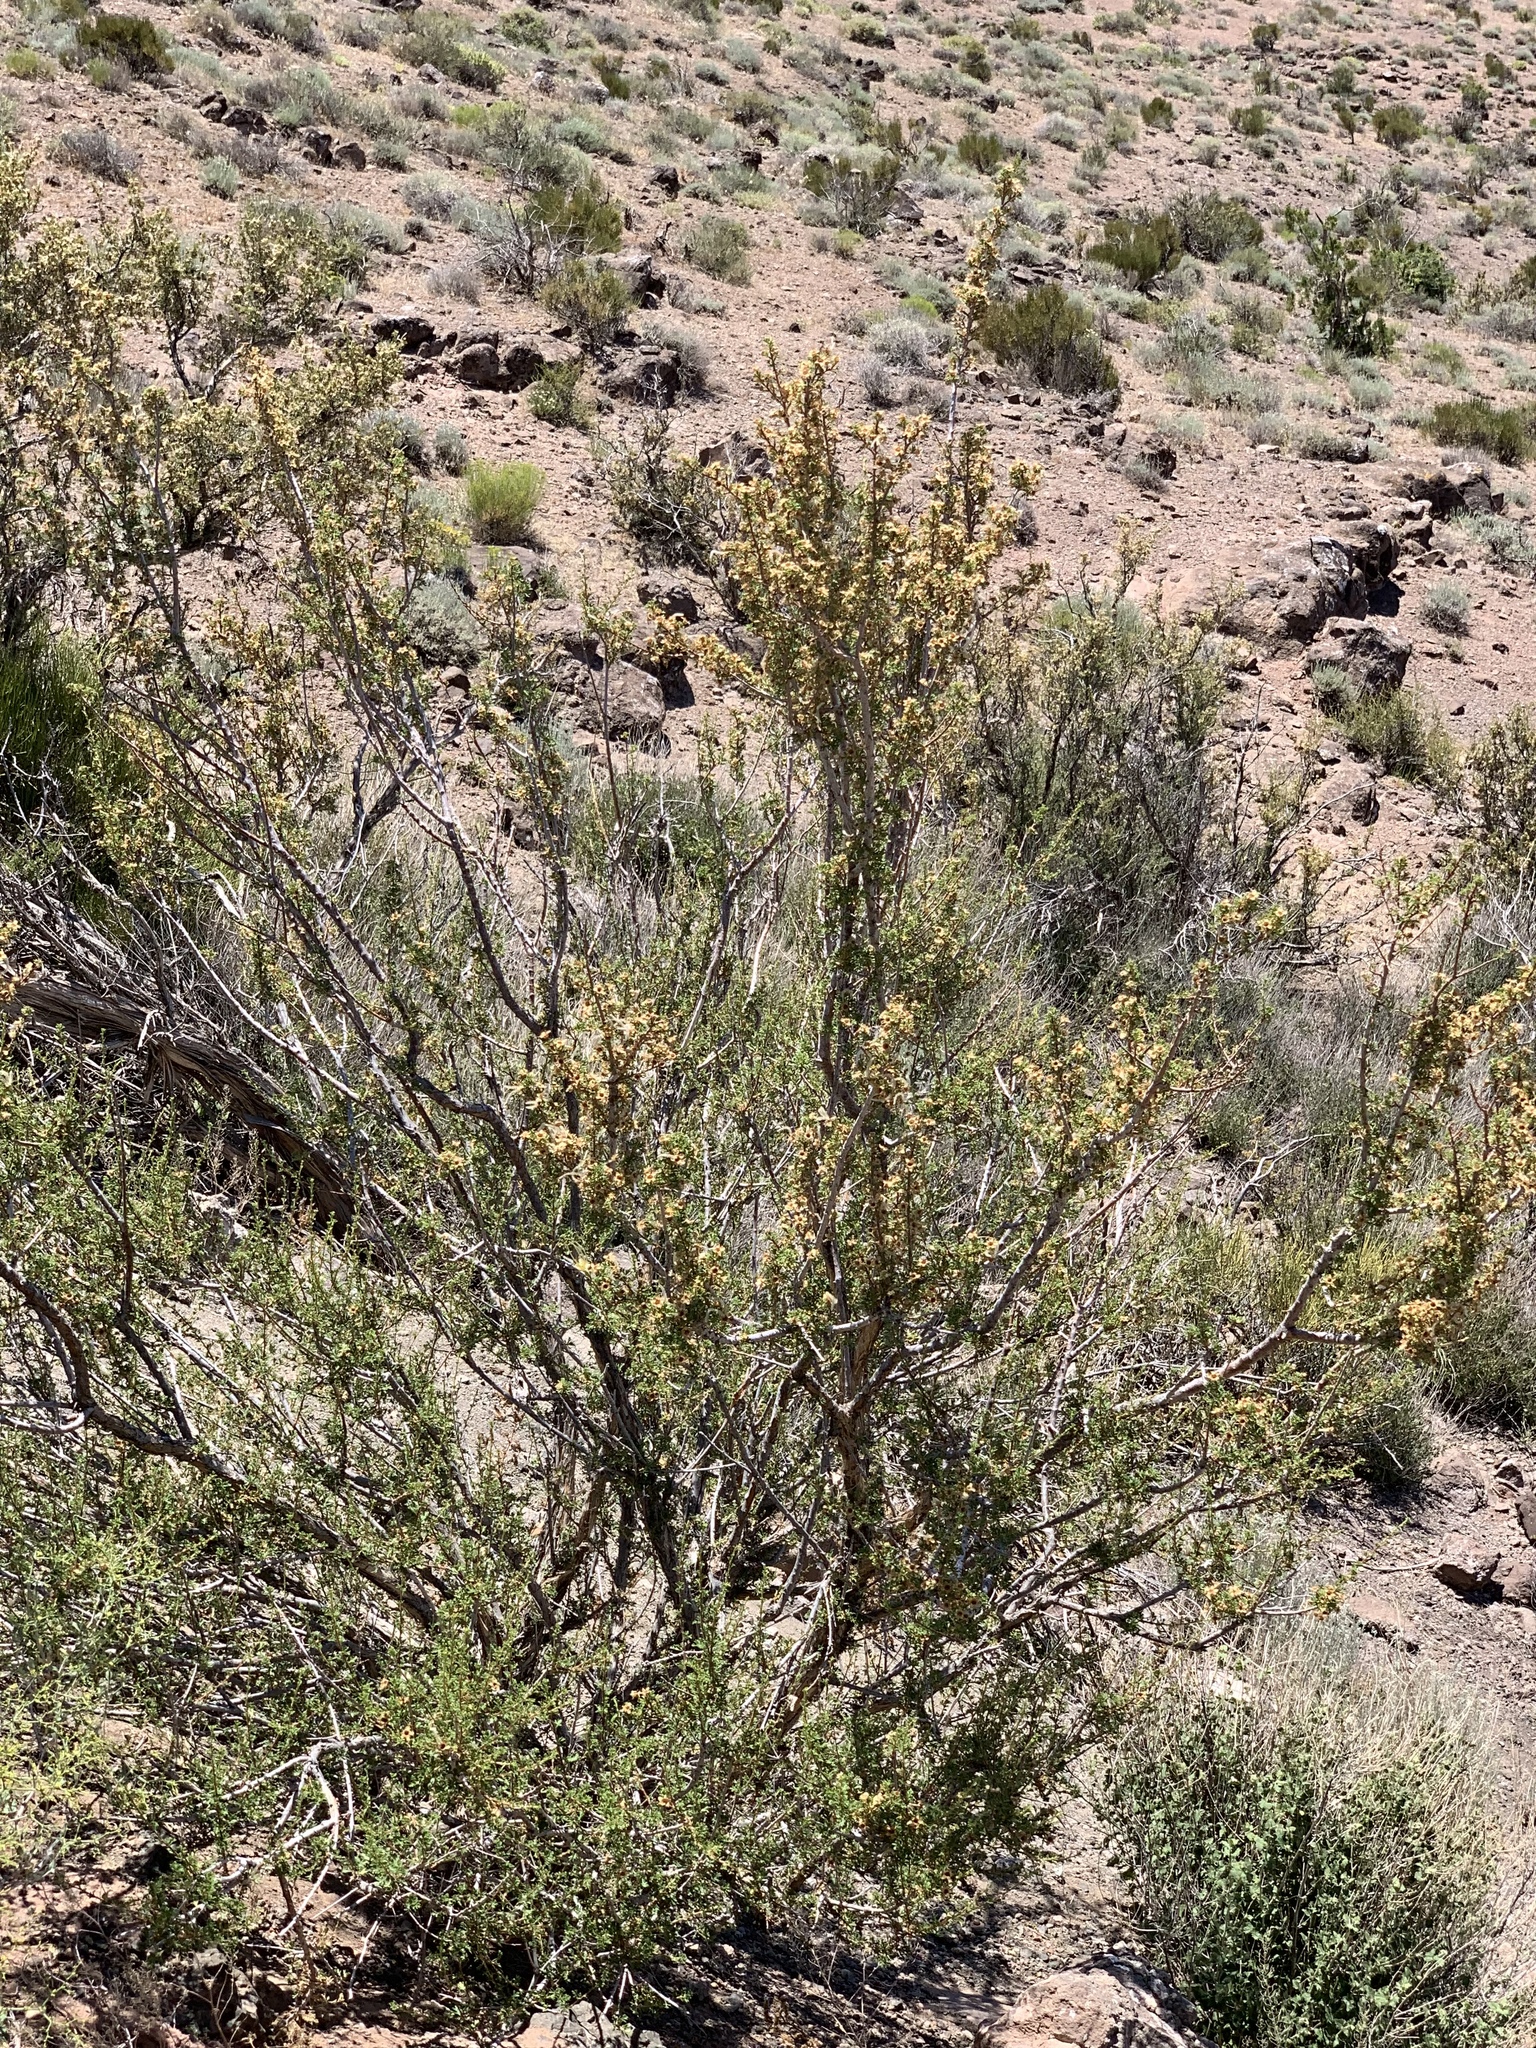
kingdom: Plantae
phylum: Tracheophyta
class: Magnoliopsida
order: Rosales
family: Rosaceae
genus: Purshia
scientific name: Purshia stansburiana
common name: Stansbury's cliffrose
